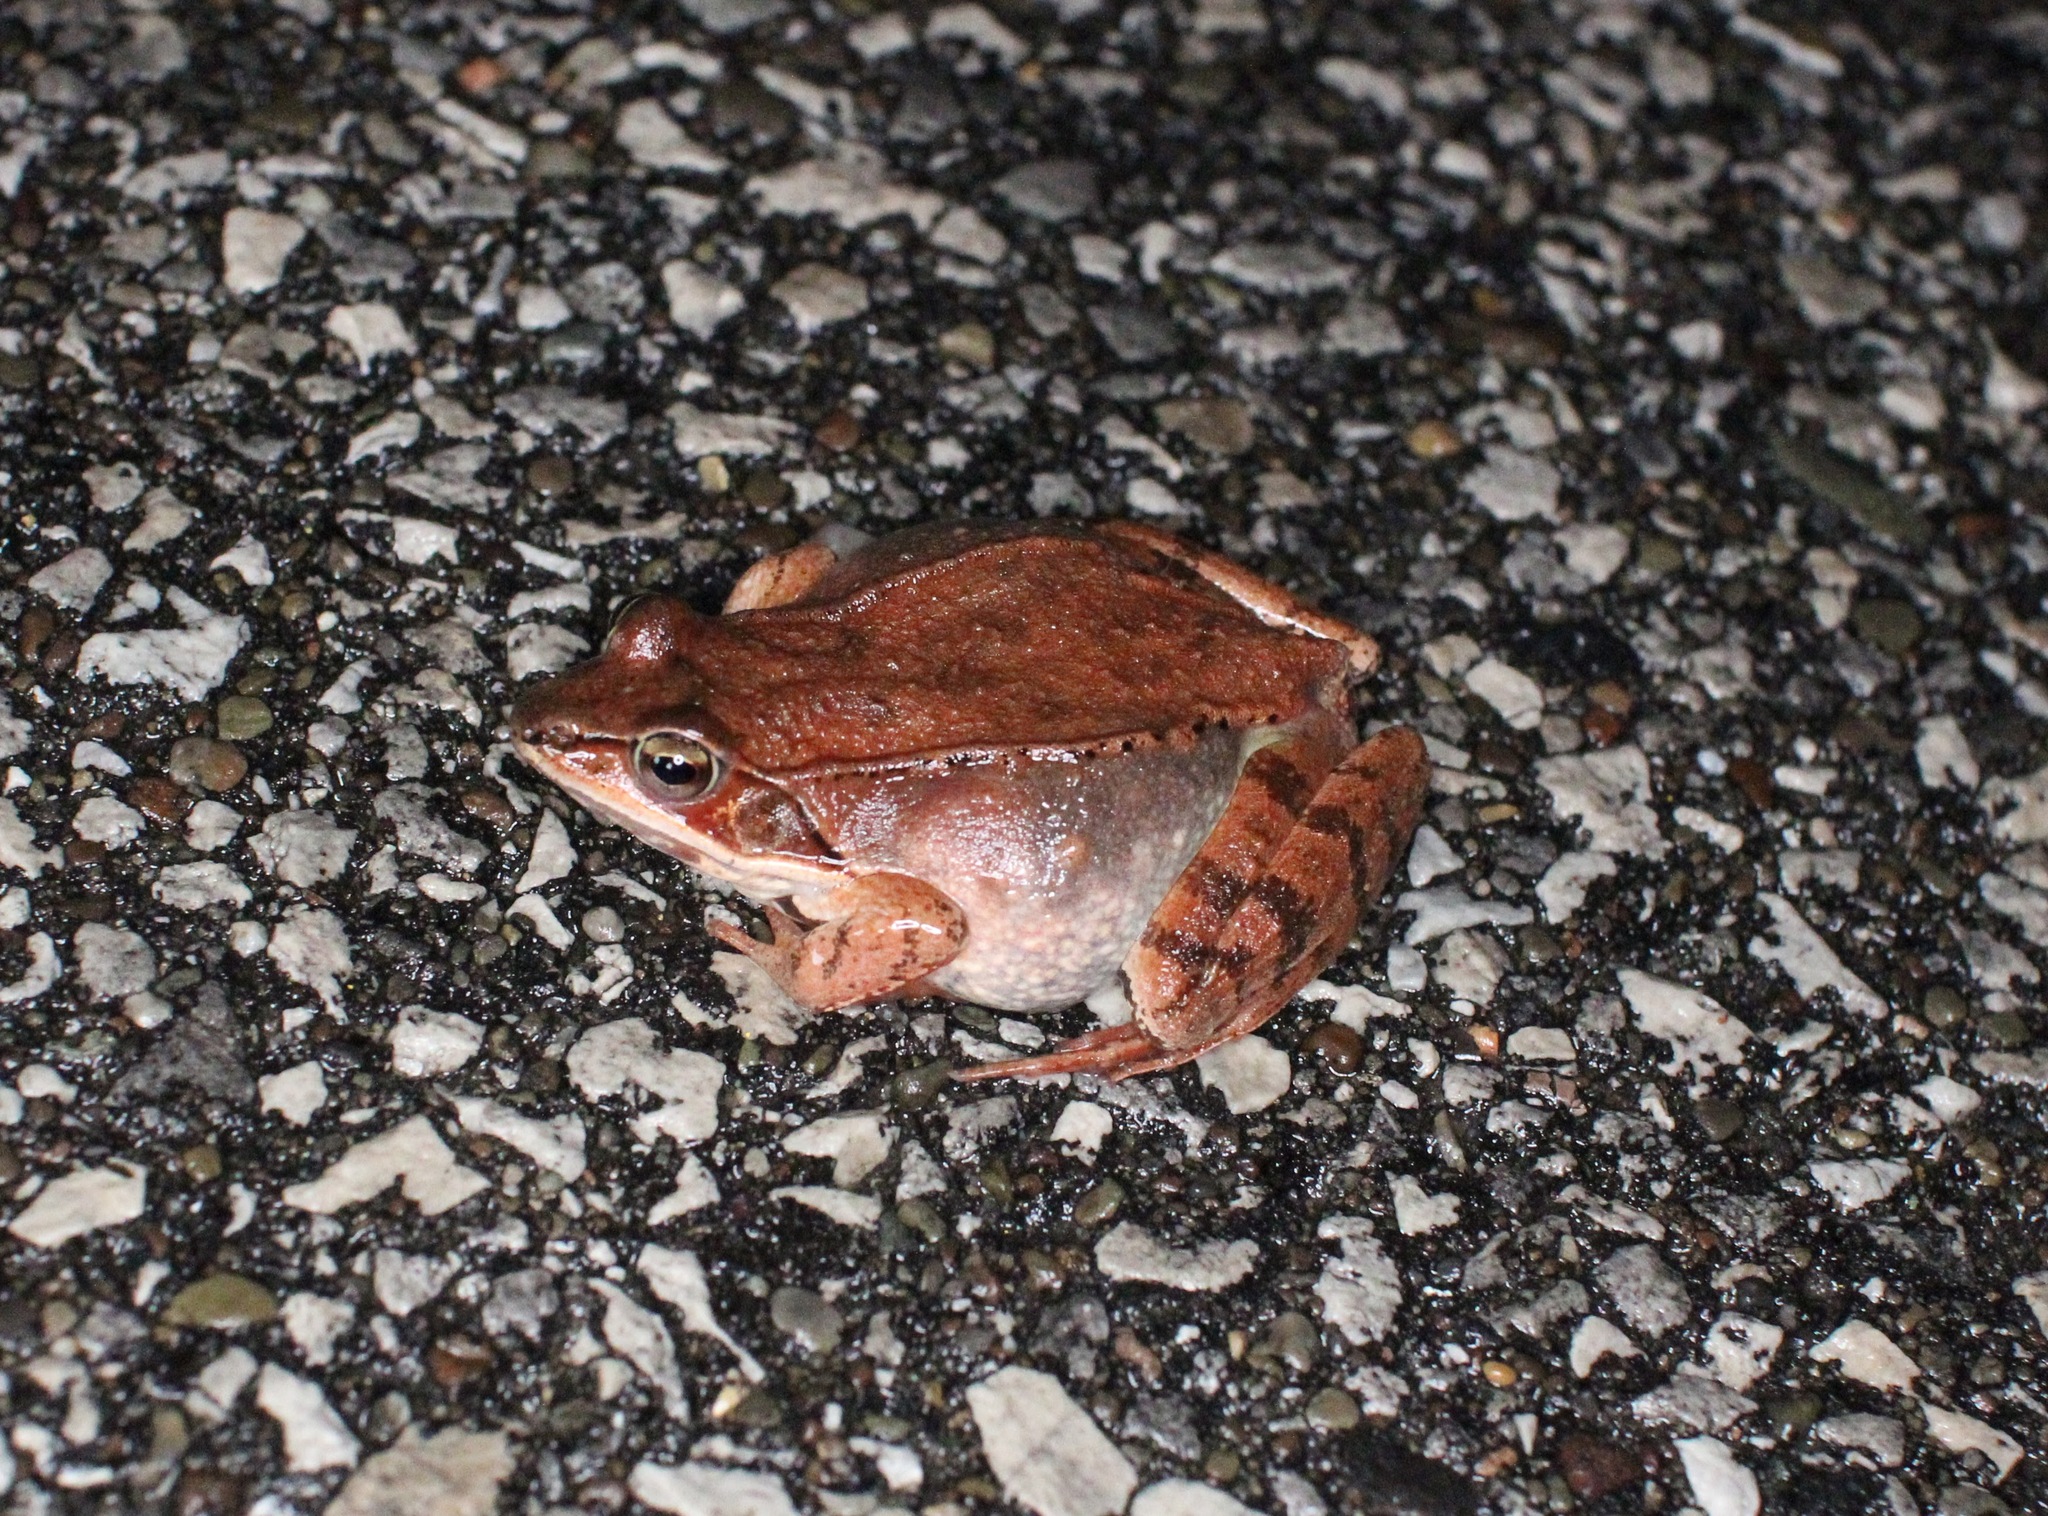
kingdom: Animalia
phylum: Chordata
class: Amphibia
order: Anura
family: Ranidae
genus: Lithobates
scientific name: Lithobates sylvaticus
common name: Wood frog
